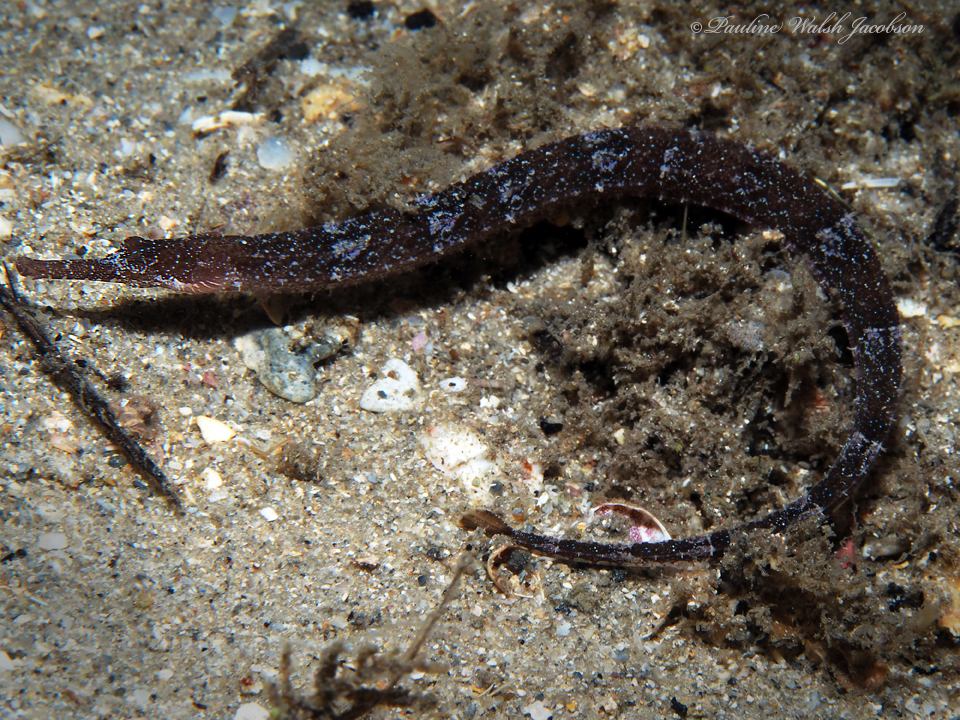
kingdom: Animalia
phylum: Chordata
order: Syngnathiformes
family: Syngnathidae
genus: Cosmocampus
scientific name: Cosmocampus elucens
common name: Poey's pipefish
